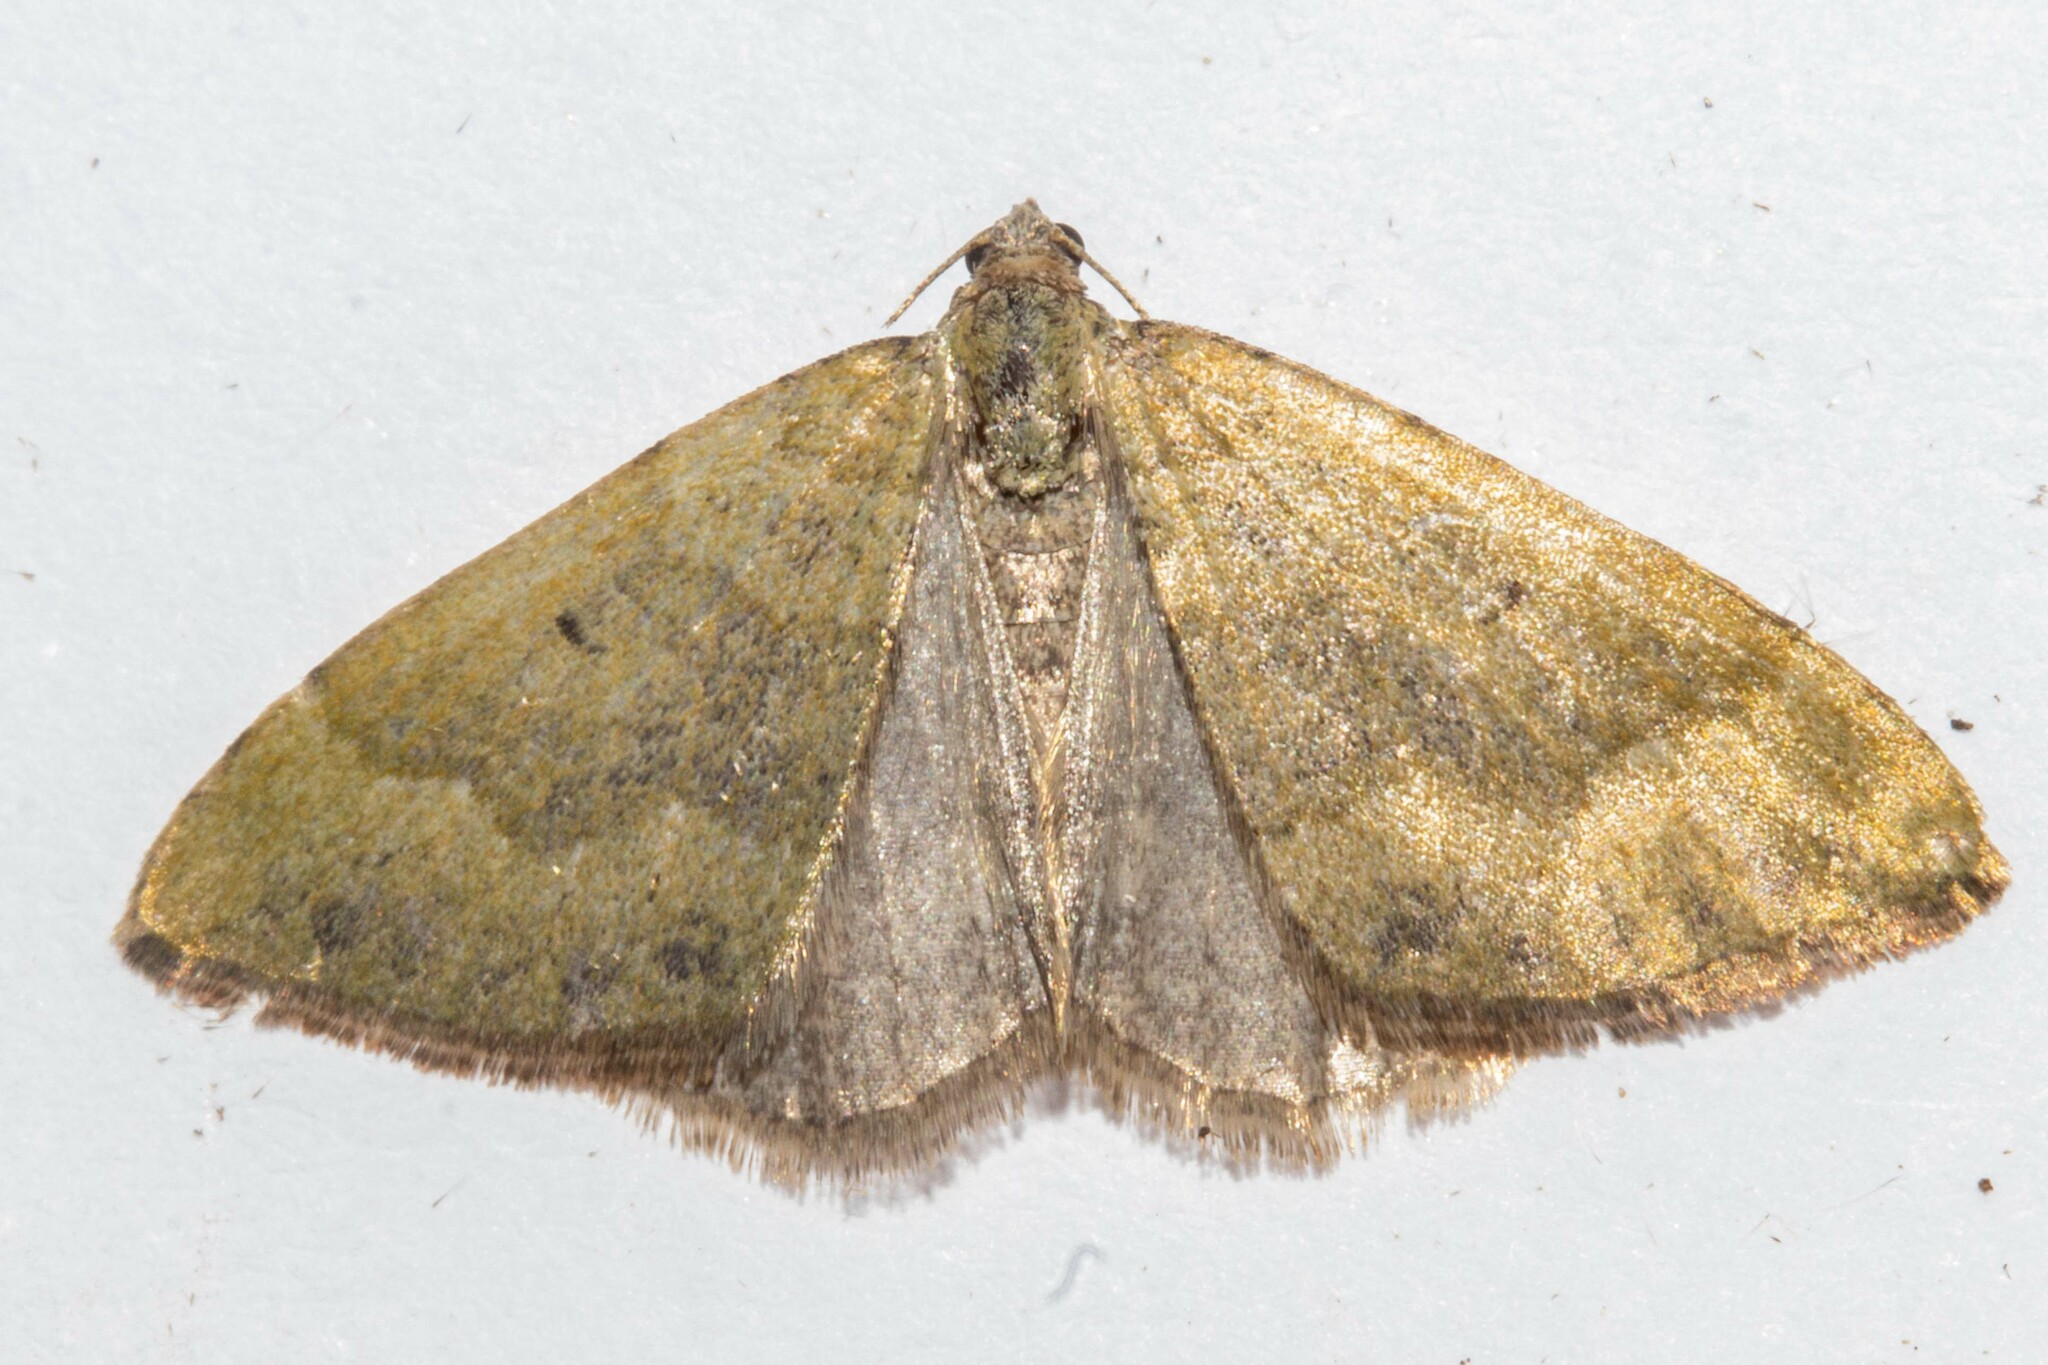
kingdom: Animalia
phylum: Arthropoda
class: Insecta
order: Lepidoptera
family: Geometridae
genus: Epyaxa
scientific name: Epyaxa rosearia
